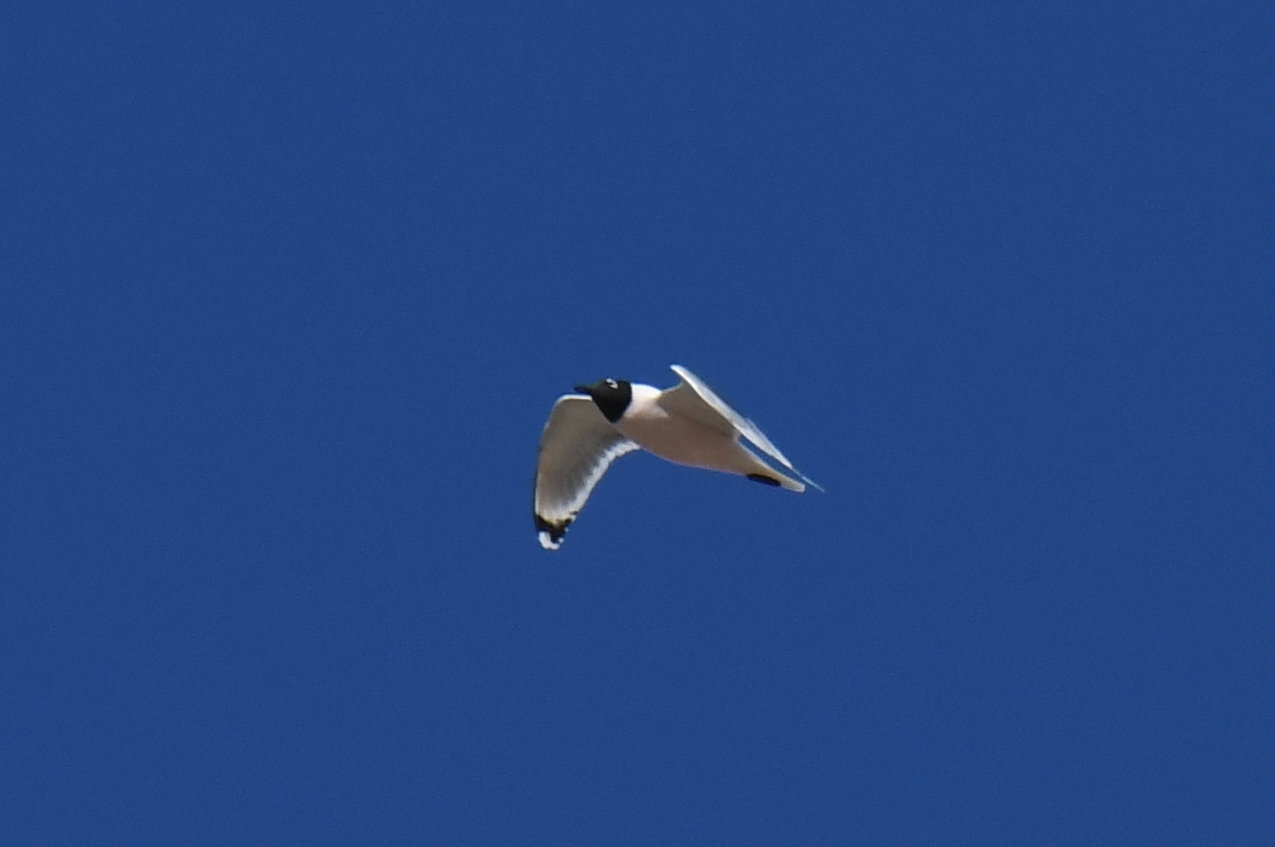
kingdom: Animalia
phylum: Chordata
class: Aves
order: Charadriiformes
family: Laridae
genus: Leucophaeus
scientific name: Leucophaeus pipixcan
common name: Franklin's gull
